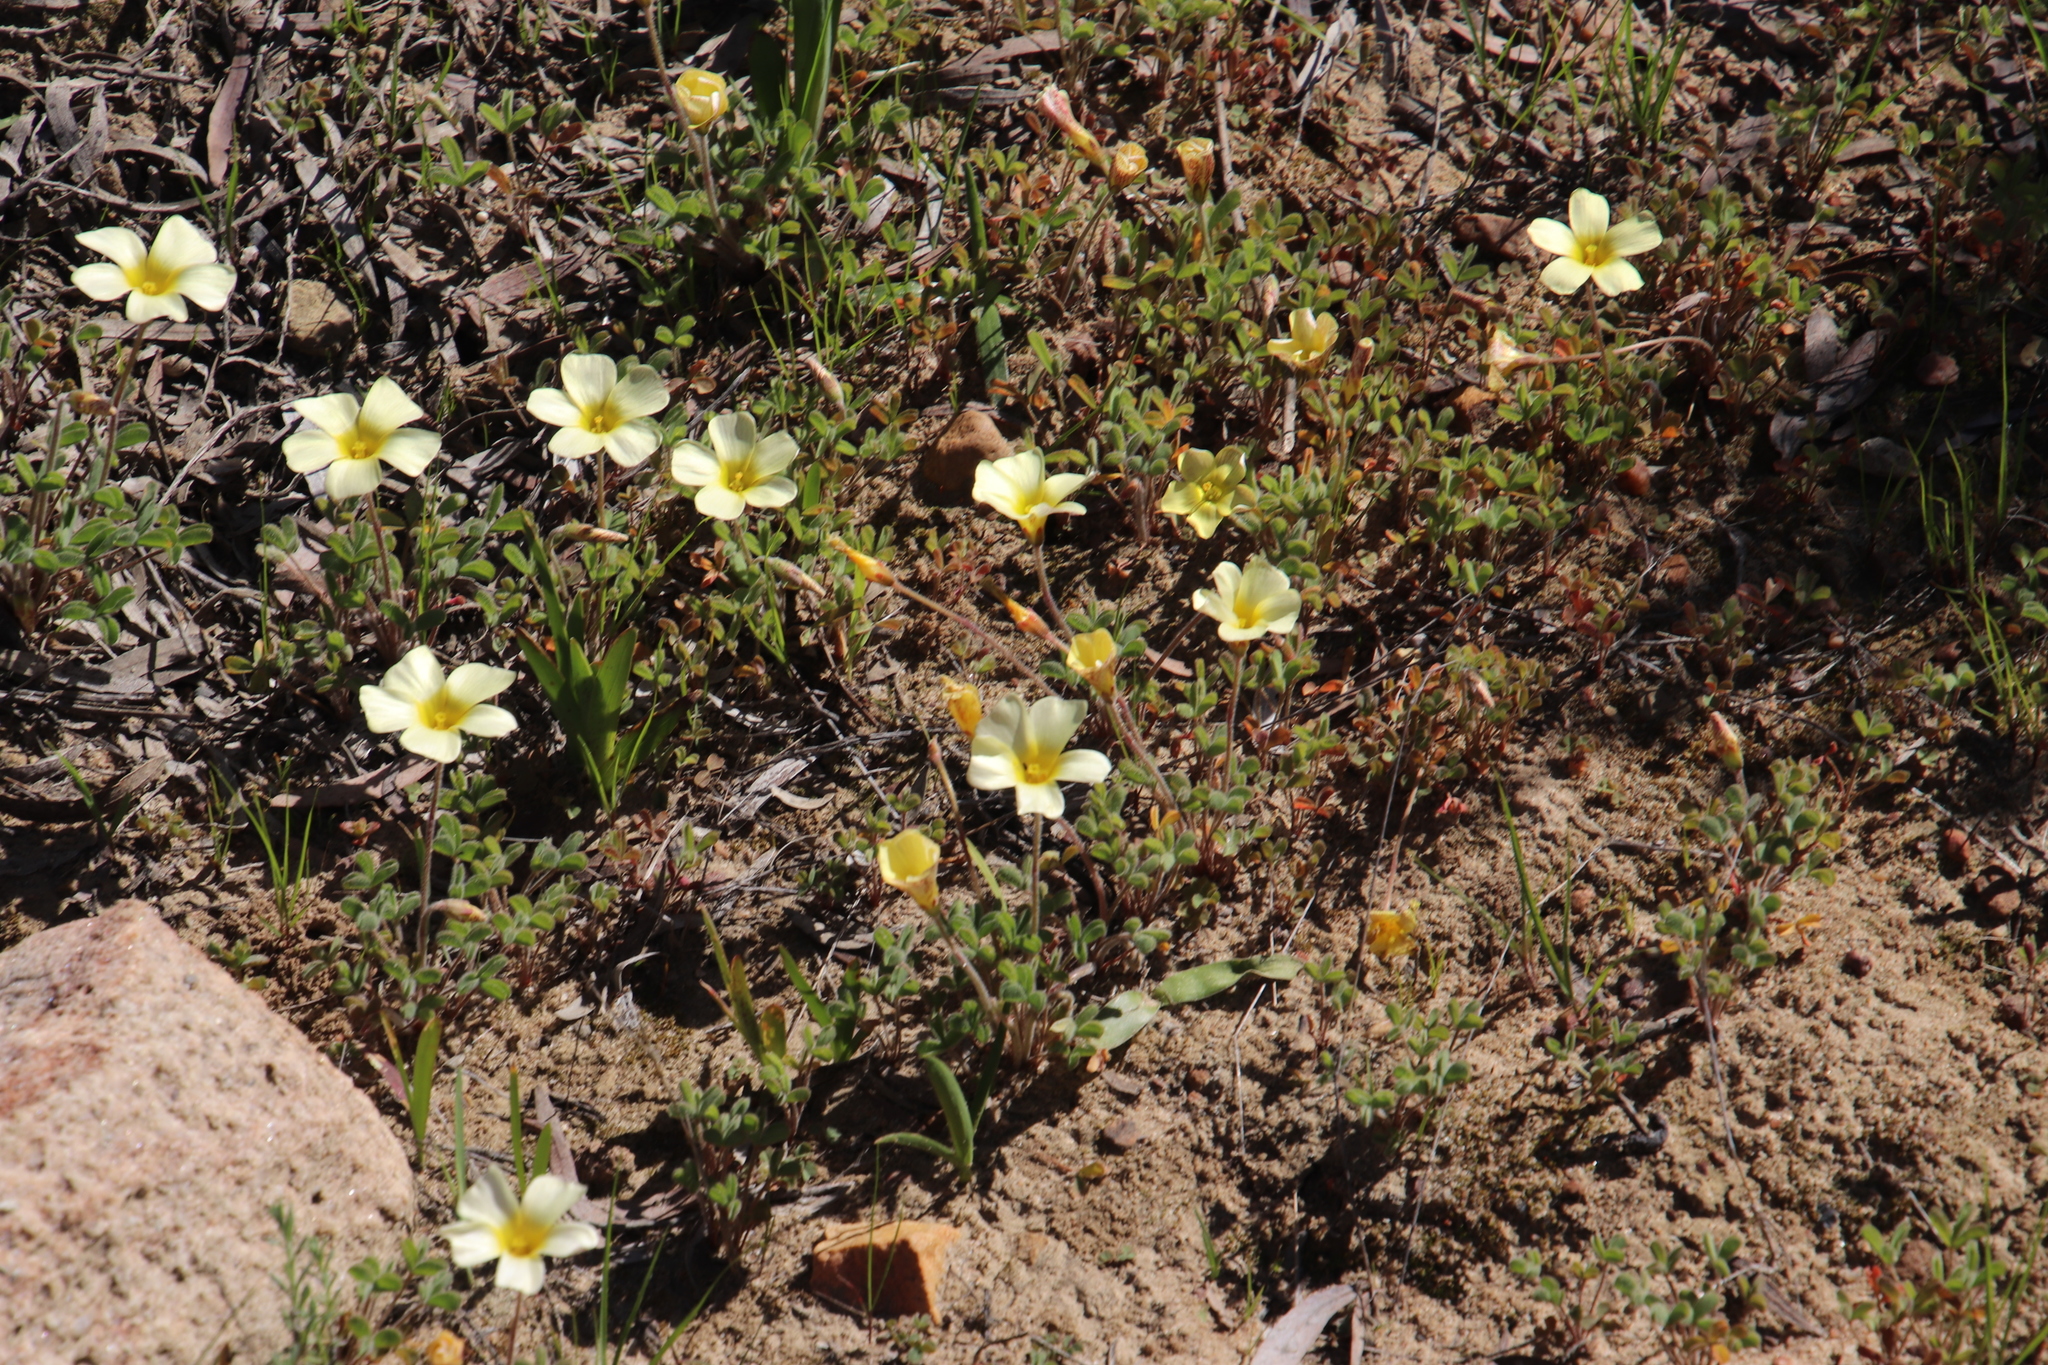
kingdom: Plantae
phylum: Tracheophyta
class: Magnoliopsida
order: Oxalidales
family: Oxalidaceae
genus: Oxalis
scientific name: Oxalis obtusa
